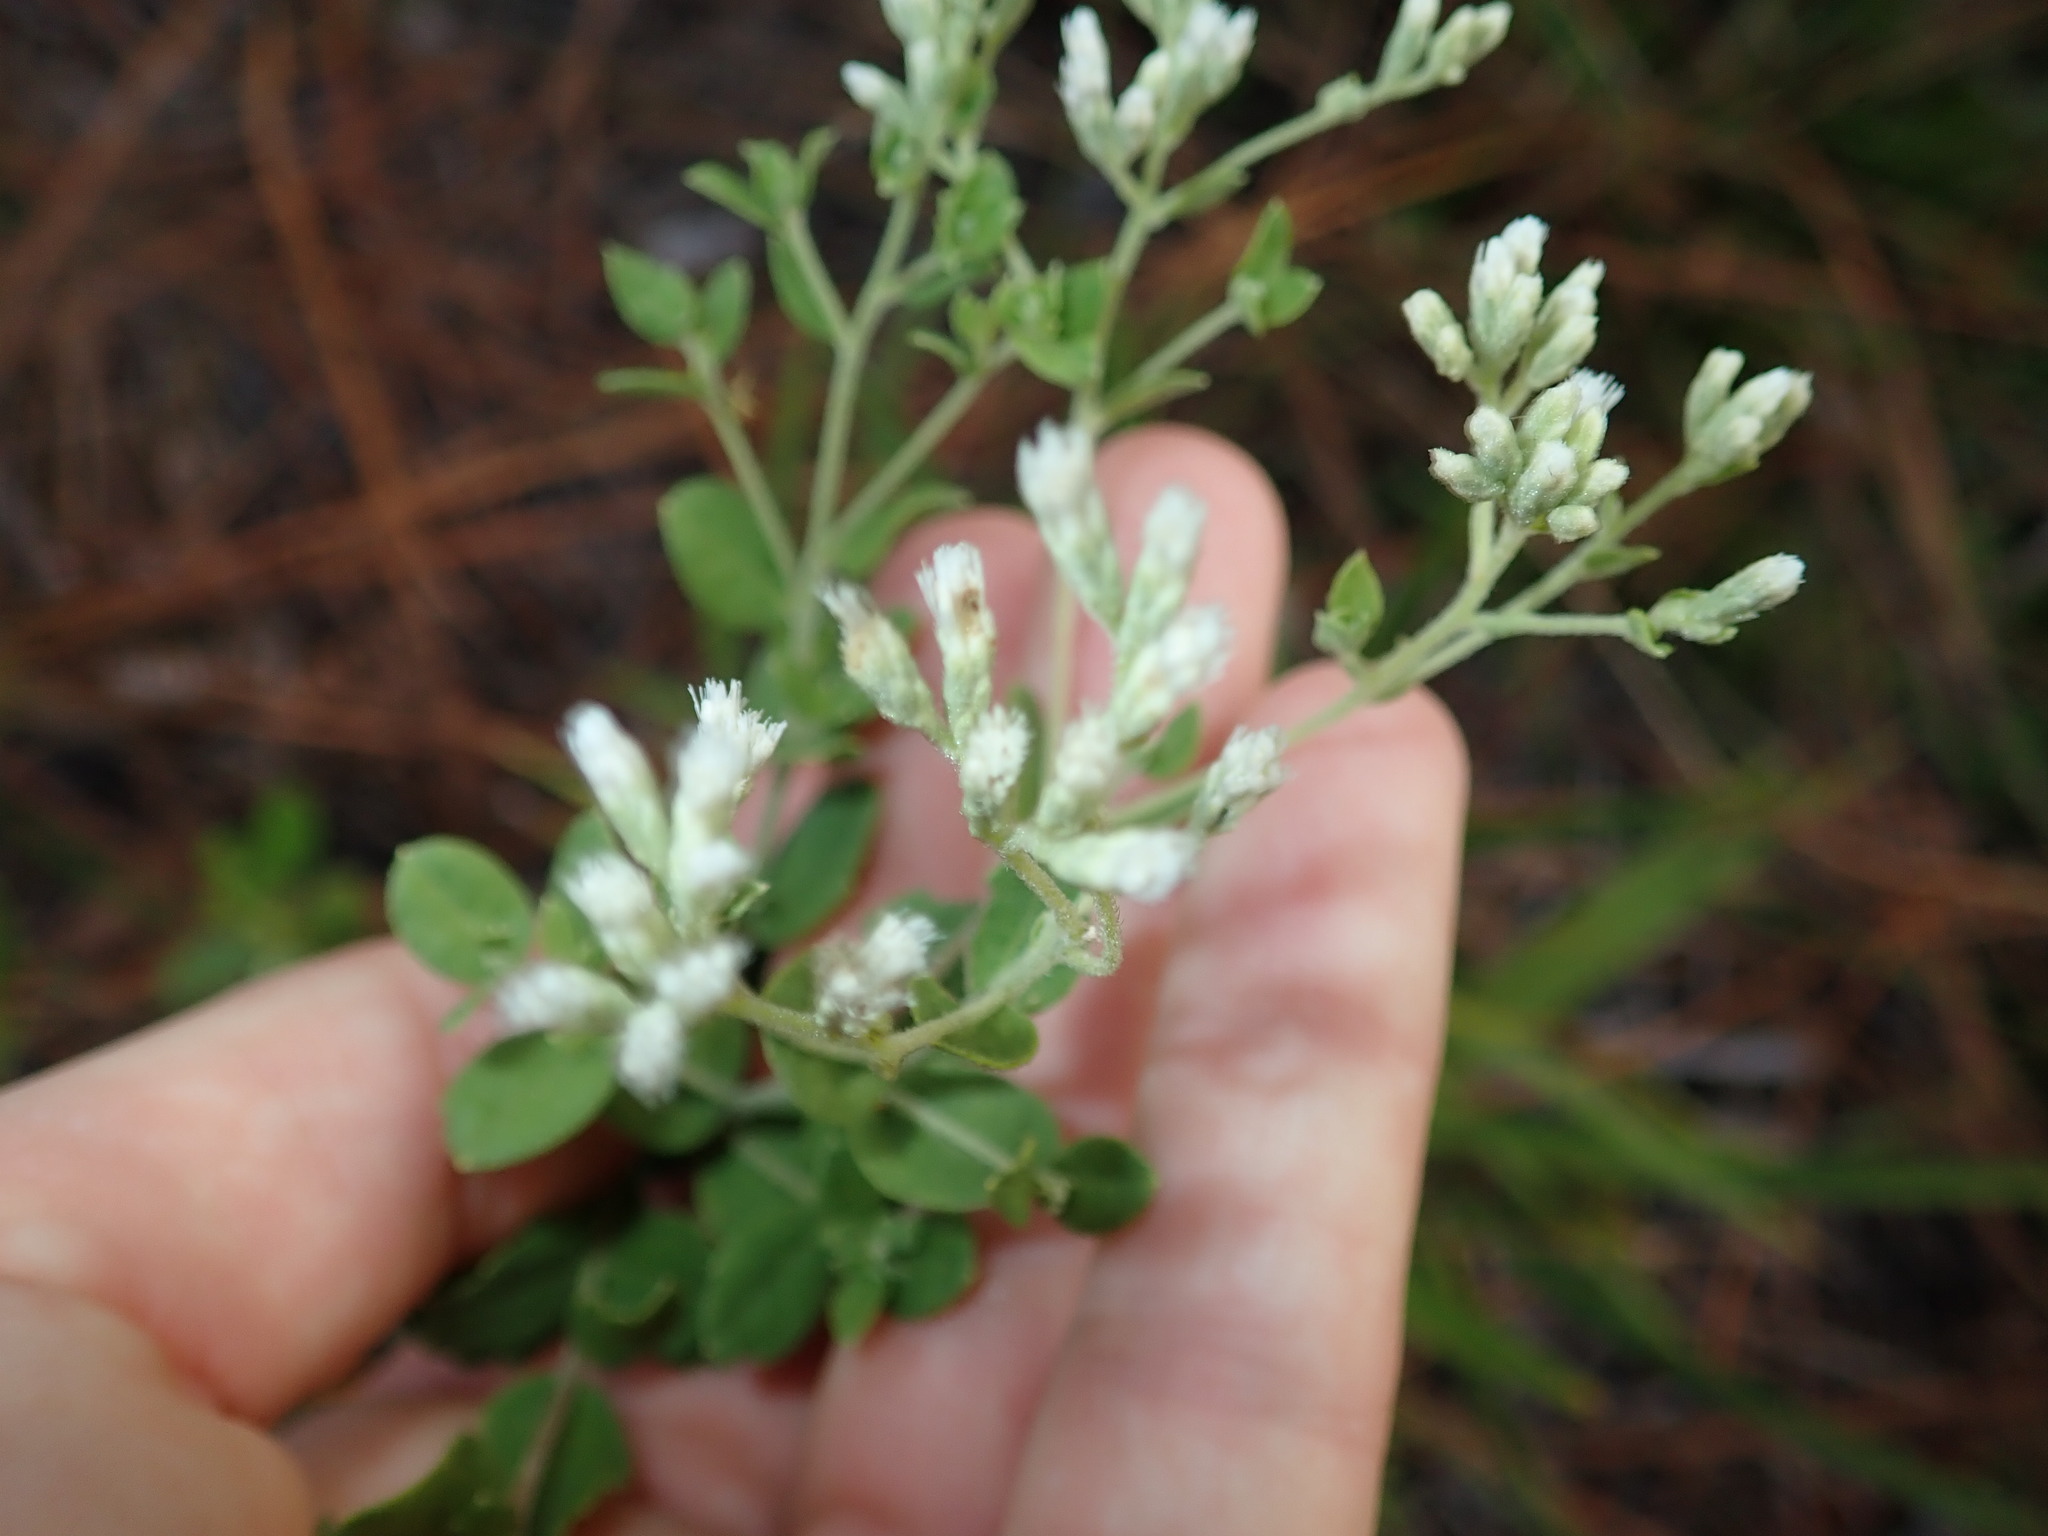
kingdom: Plantae
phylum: Tracheophyta
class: Magnoliopsida
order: Asterales
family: Asteraceae
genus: Eupatorium
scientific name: Eupatorium rotundifolium
